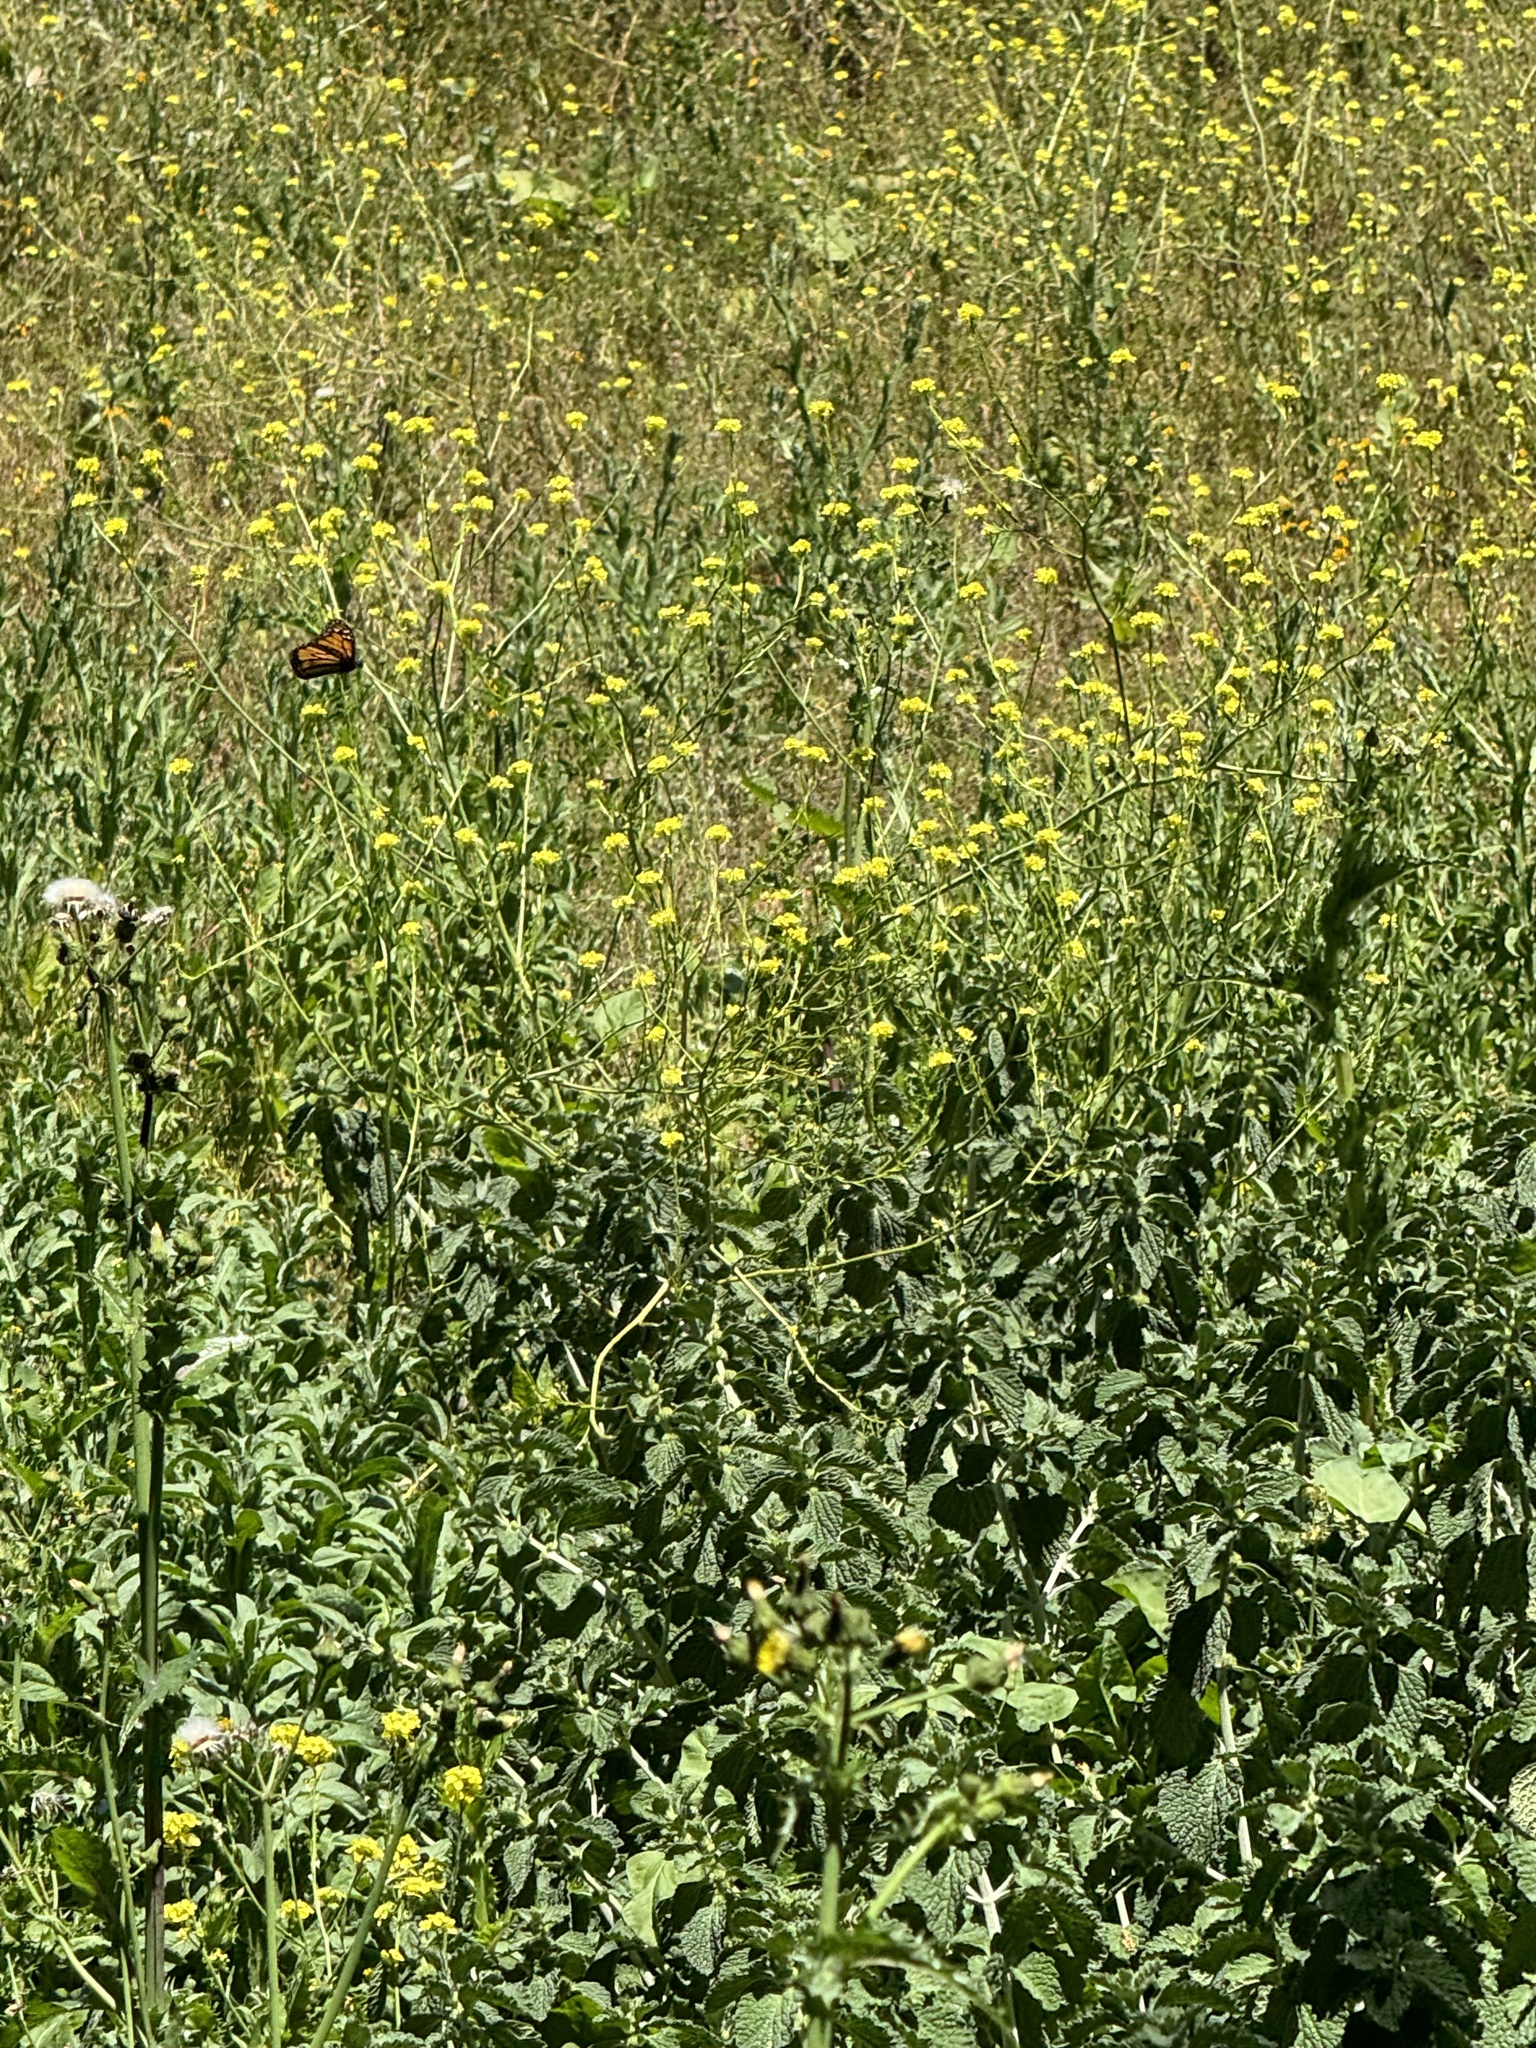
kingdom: Animalia
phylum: Arthropoda
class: Insecta
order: Lepidoptera
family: Nymphalidae
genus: Danaus
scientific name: Danaus plexippus
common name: Monarch
